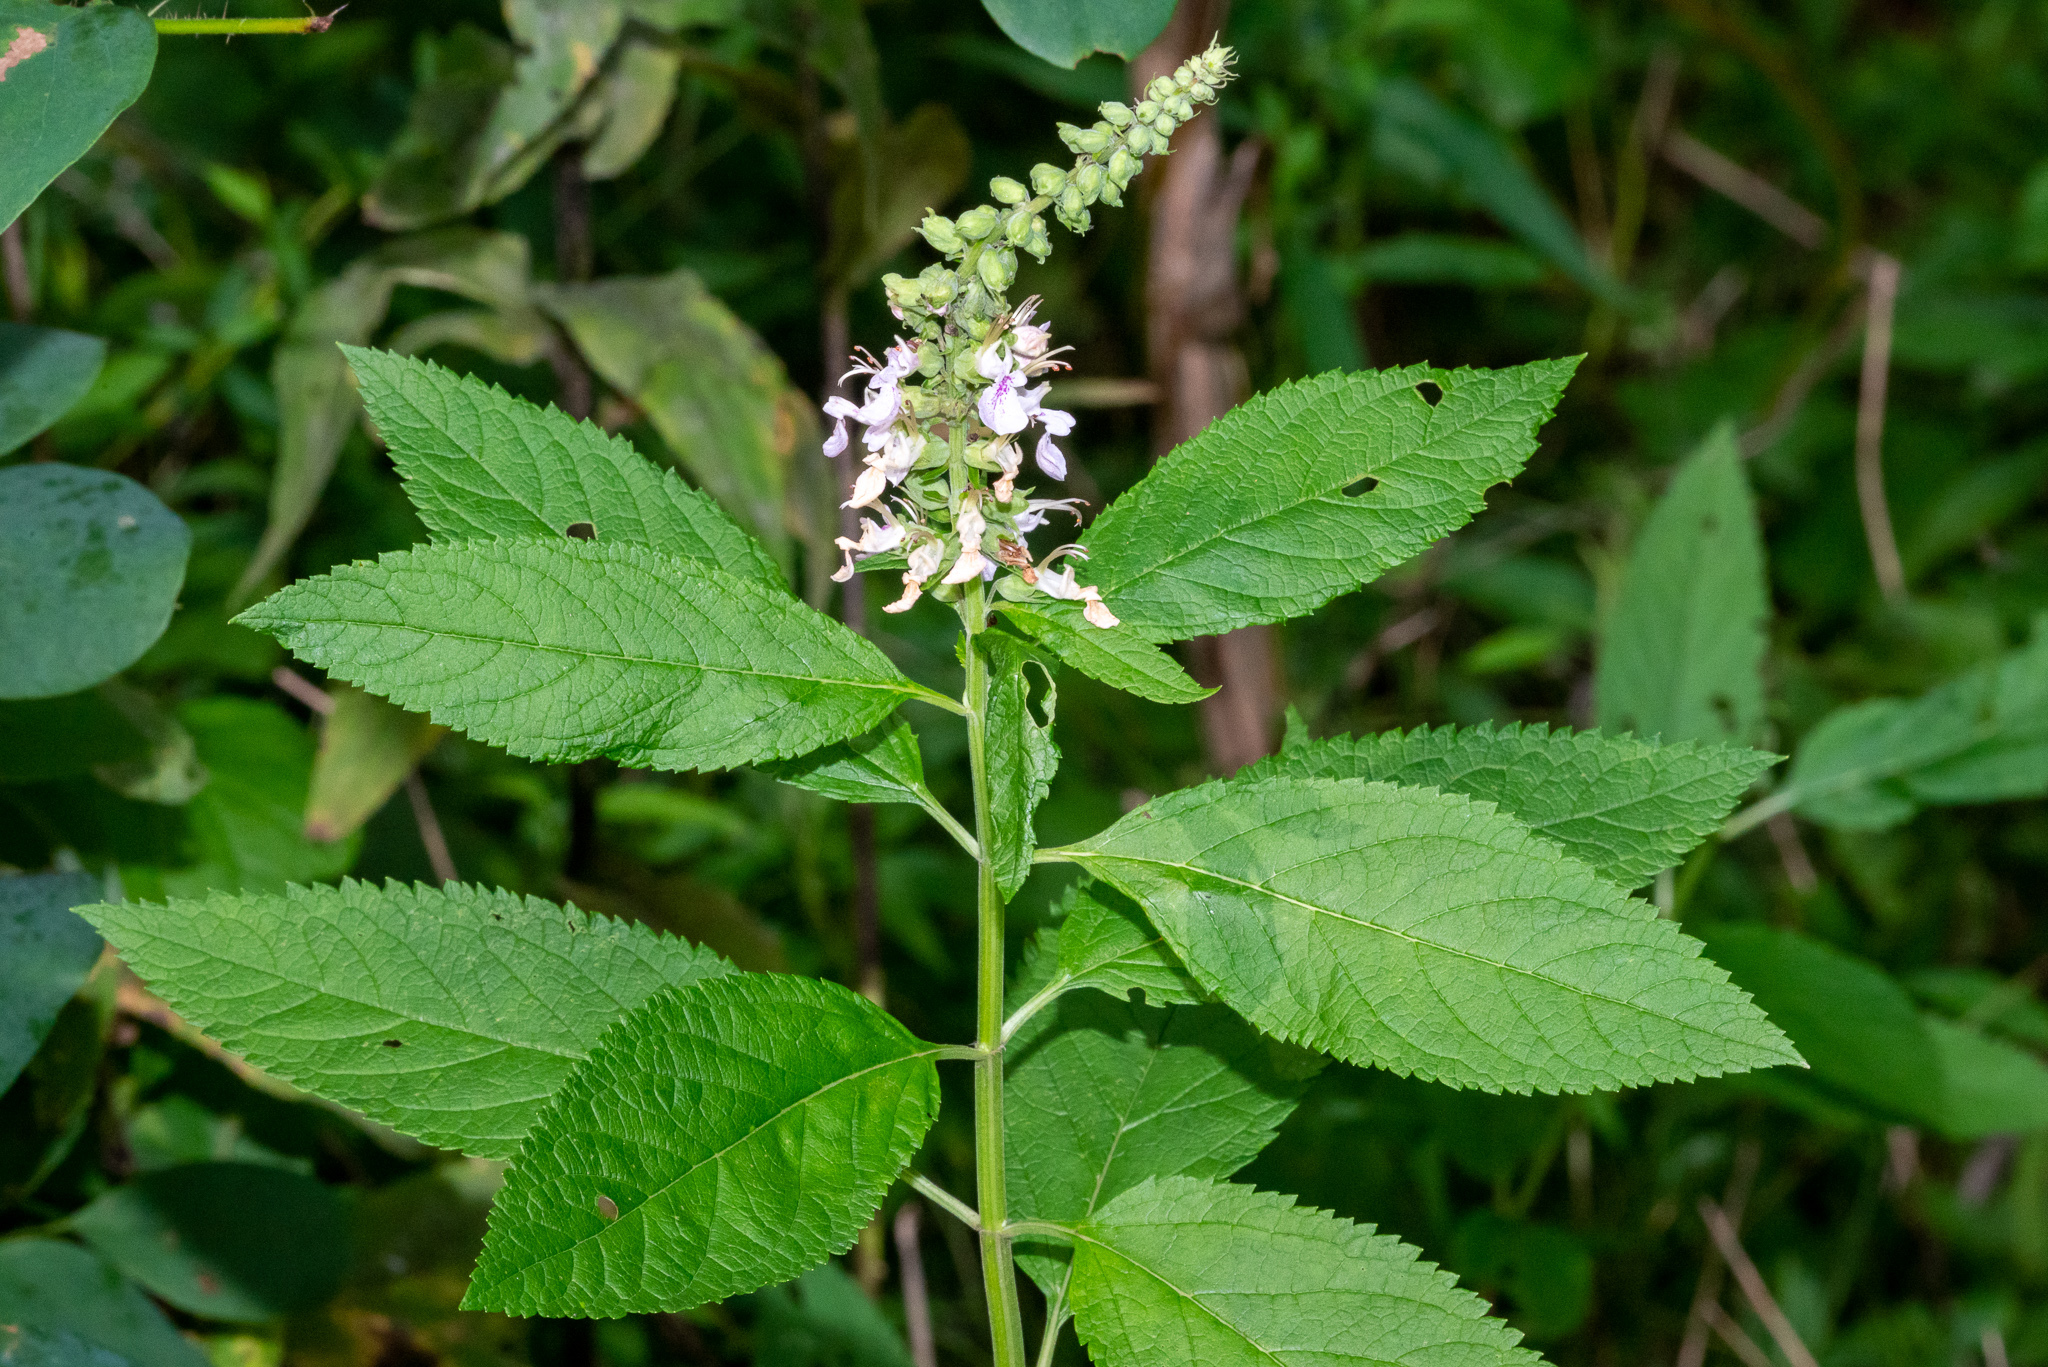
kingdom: Plantae
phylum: Tracheophyta
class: Magnoliopsida
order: Lamiales
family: Lamiaceae
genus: Teucrium
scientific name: Teucrium canadense
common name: American germander
